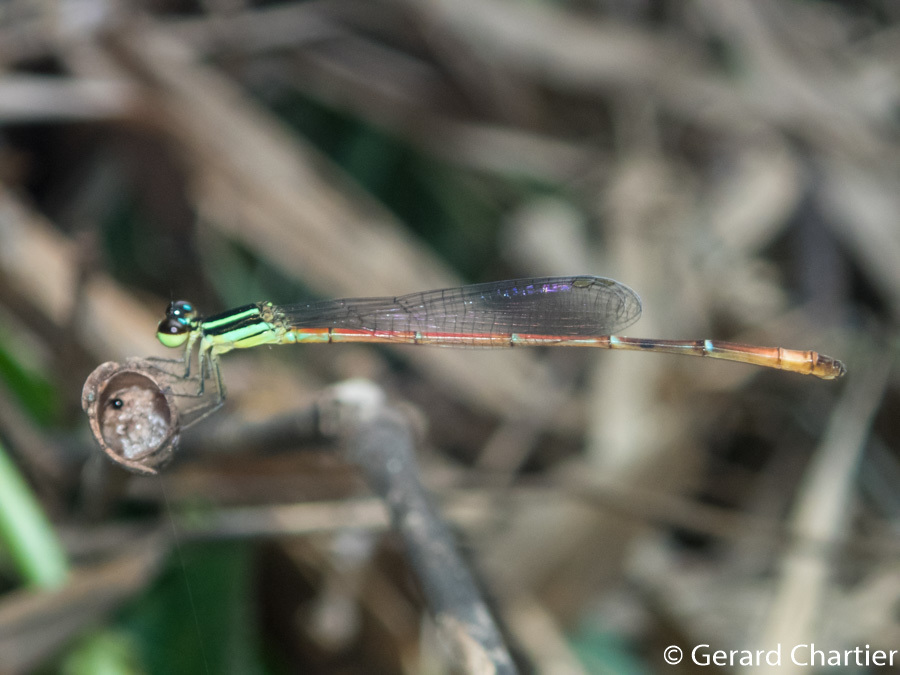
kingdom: Animalia
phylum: Arthropoda
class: Insecta
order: Odonata
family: Coenagrionidae
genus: Argiocnemis
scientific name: Argiocnemis rubescens
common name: Red-tipped shadefly
